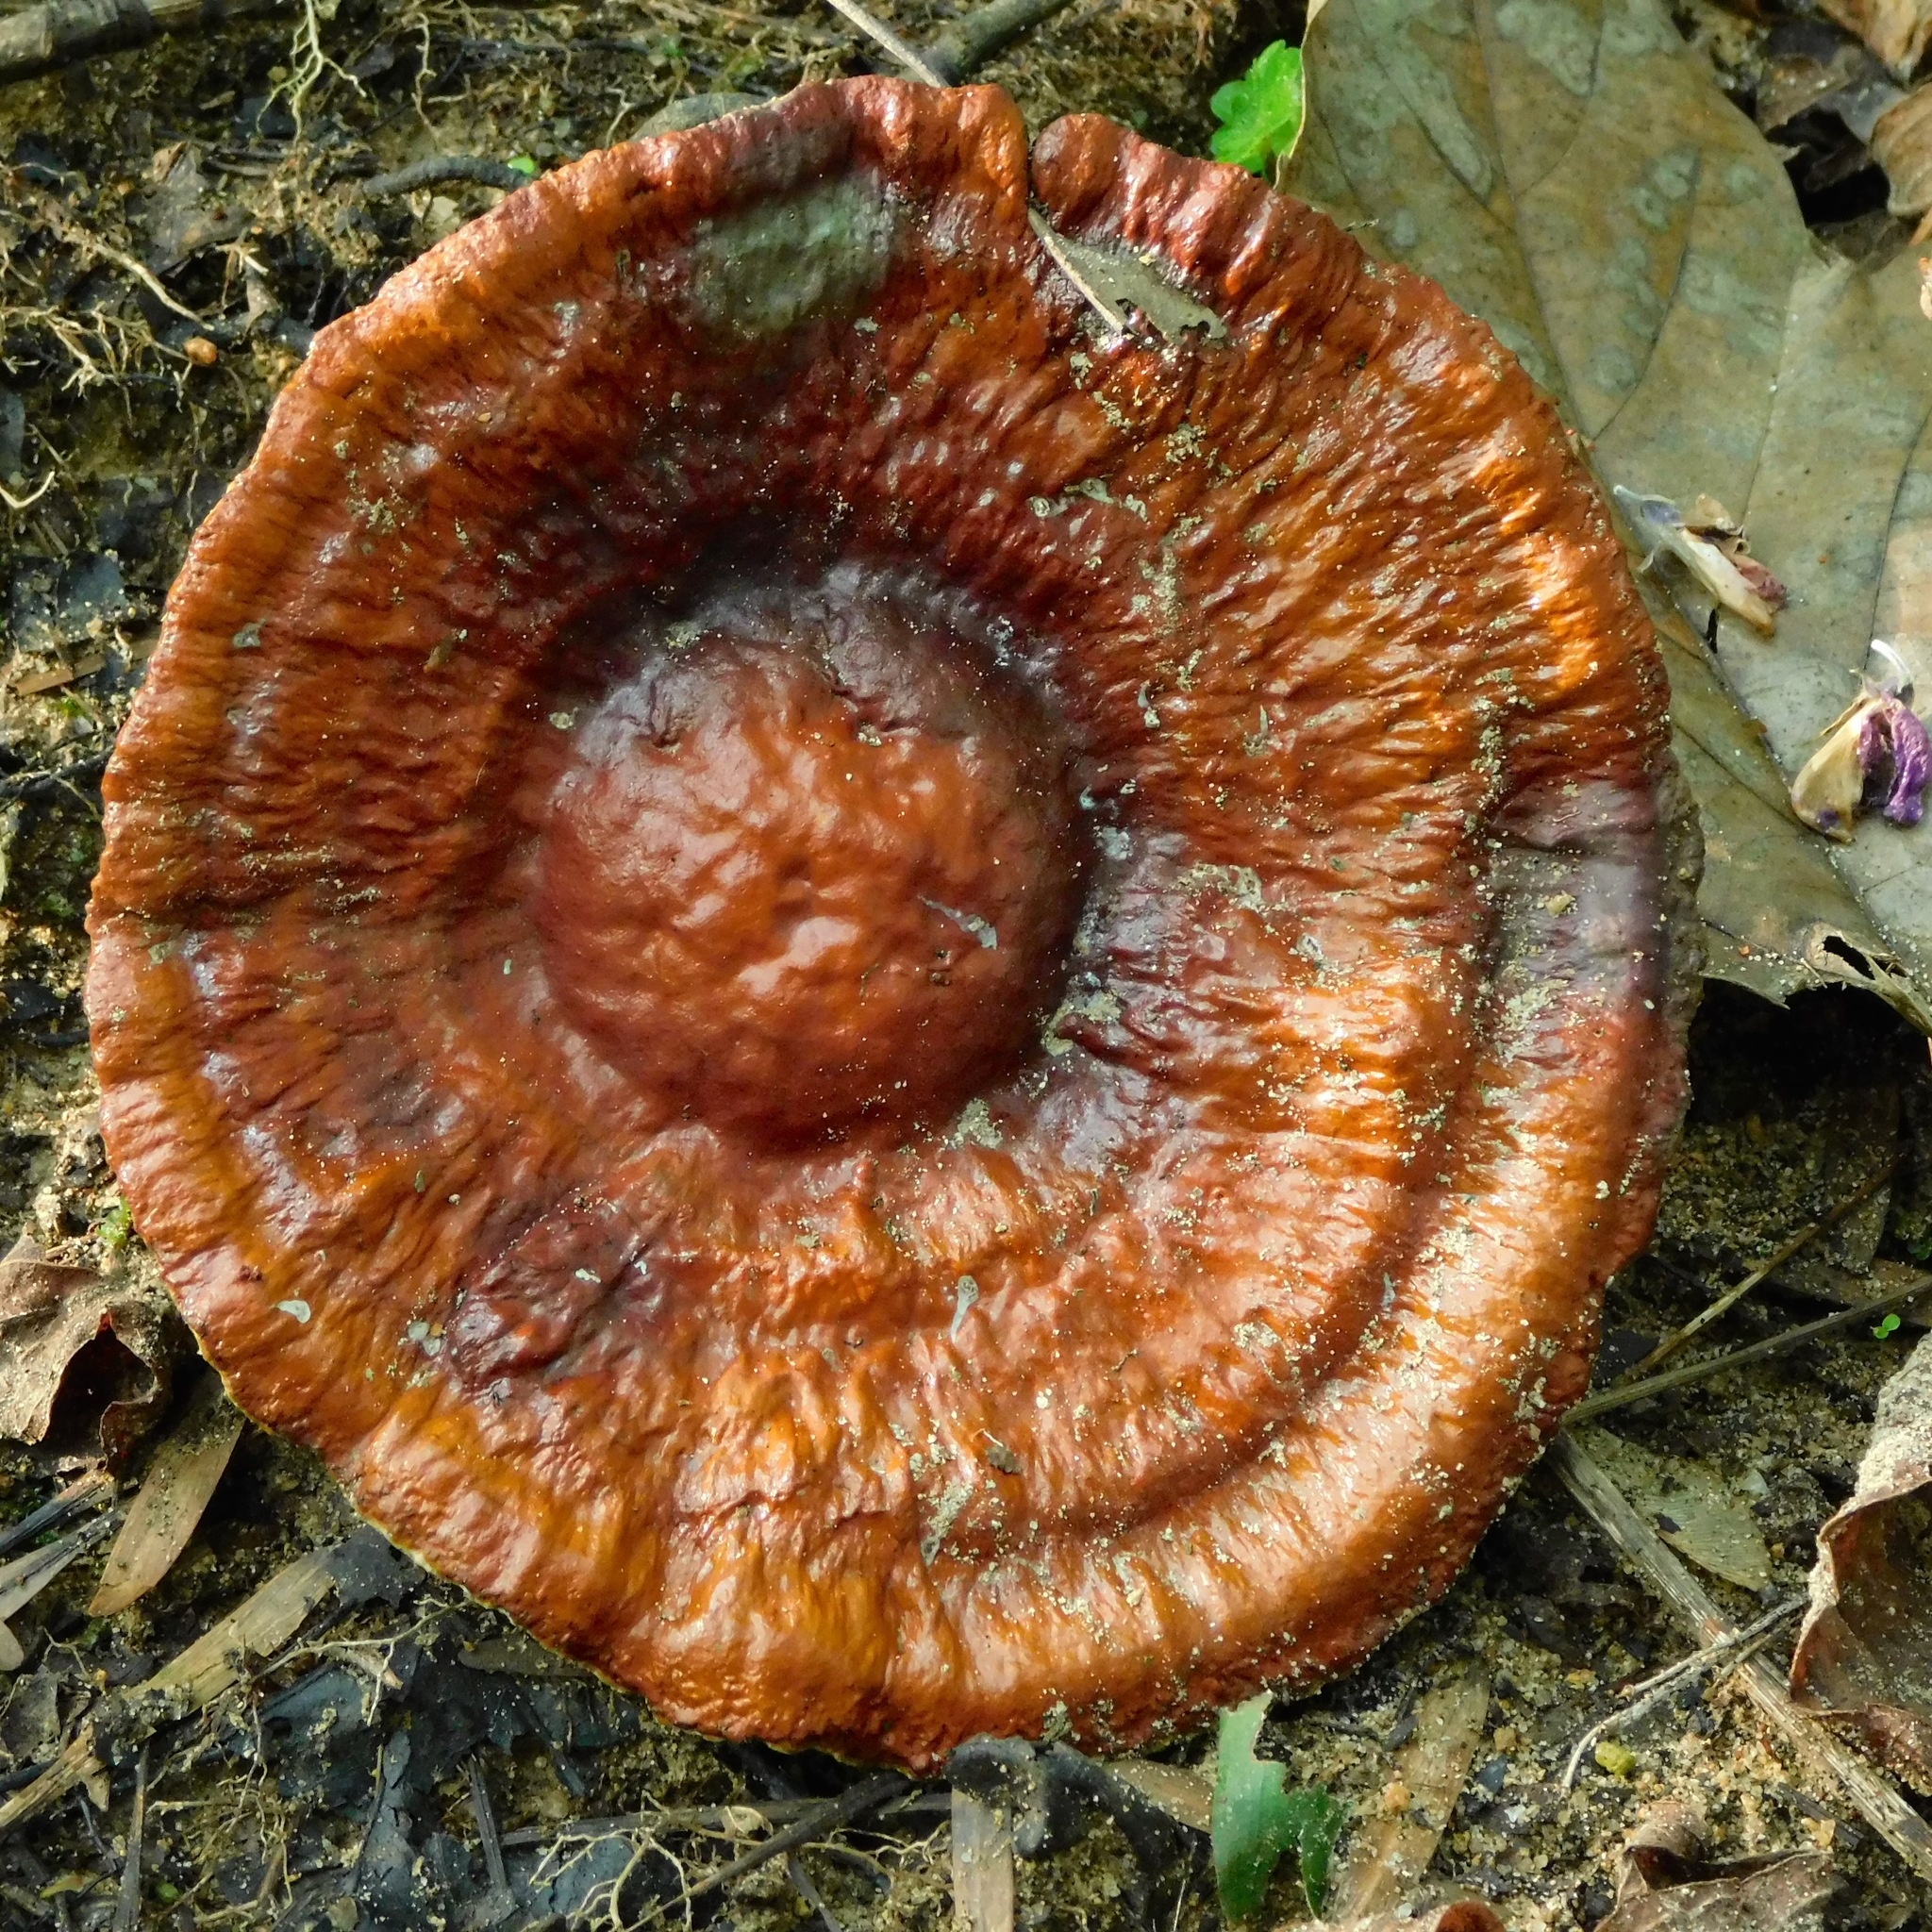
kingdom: Fungi
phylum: Basidiomycota
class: Agaricomycetes
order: Polyporales
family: Ganodermataceae
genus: Sanguinoderma
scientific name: Sanguinoderma rude
